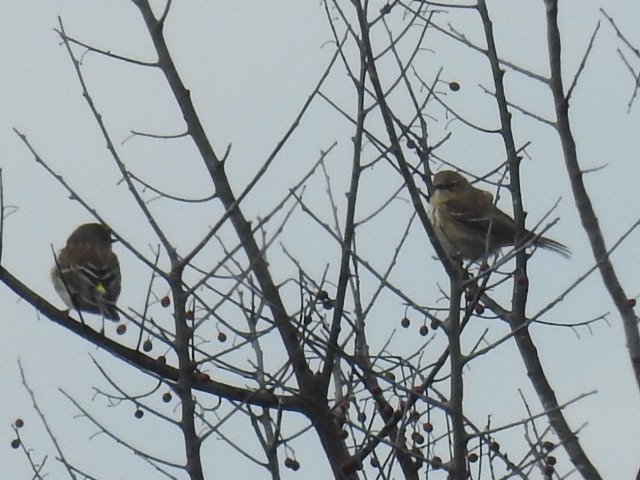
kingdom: Animalia
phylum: Chordata
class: Aves
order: Passeriformes
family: Parulidae
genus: Setophaga
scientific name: Setophaga coronata
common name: Myrtle warbler
